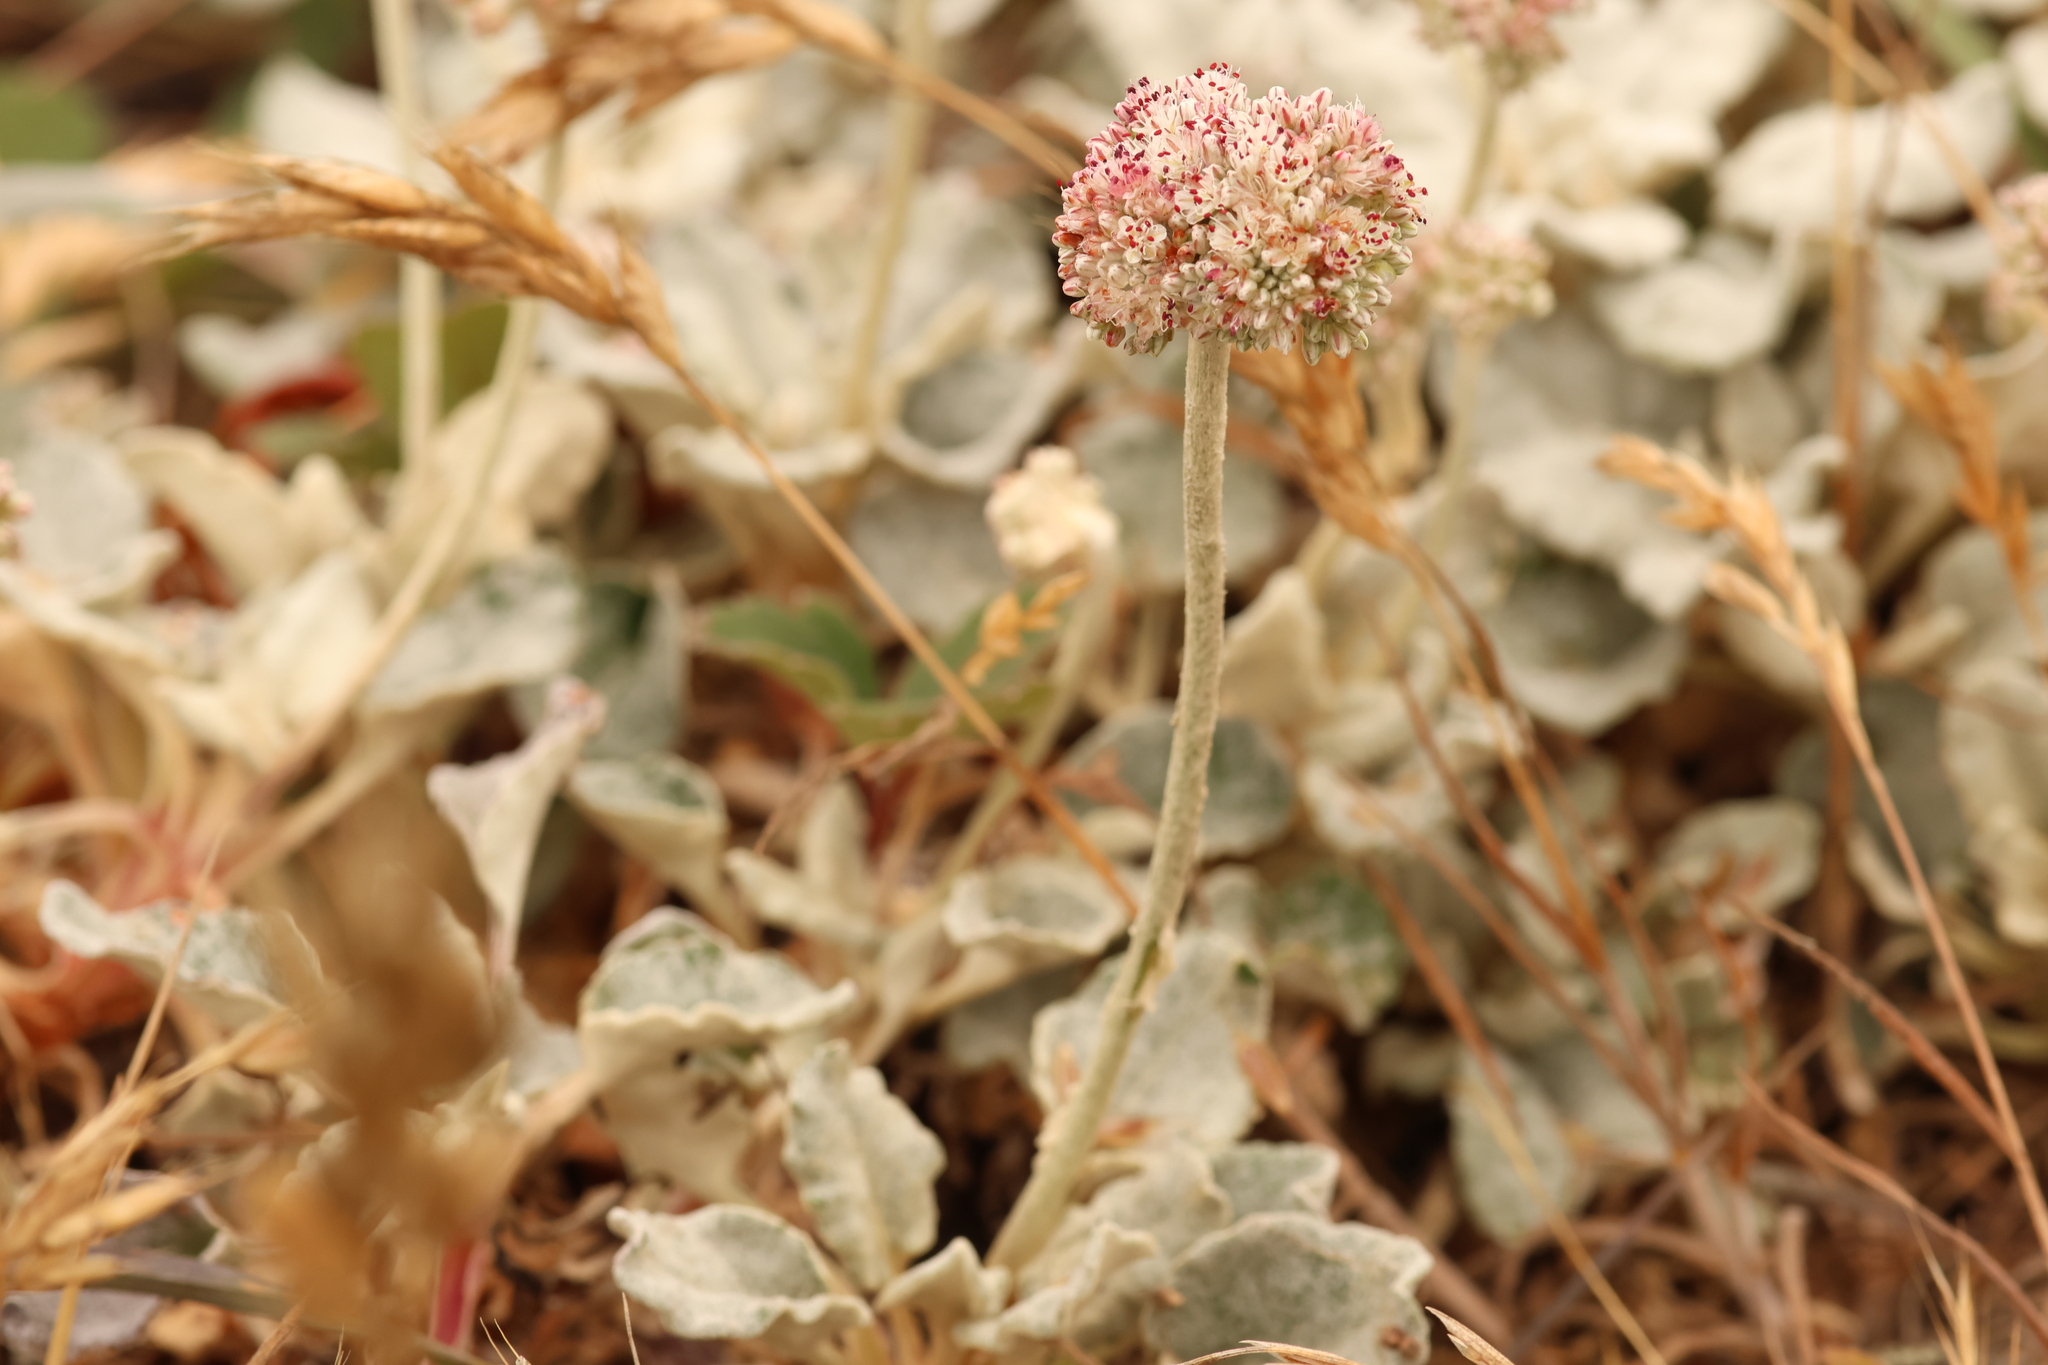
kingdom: Plantae
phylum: Tracheophyta
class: Magnoliopsida
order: Caryophyllales
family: Polygonaceae
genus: Eriogonum
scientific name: Eriogonum latifolium
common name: Seaside wild buckwheat
